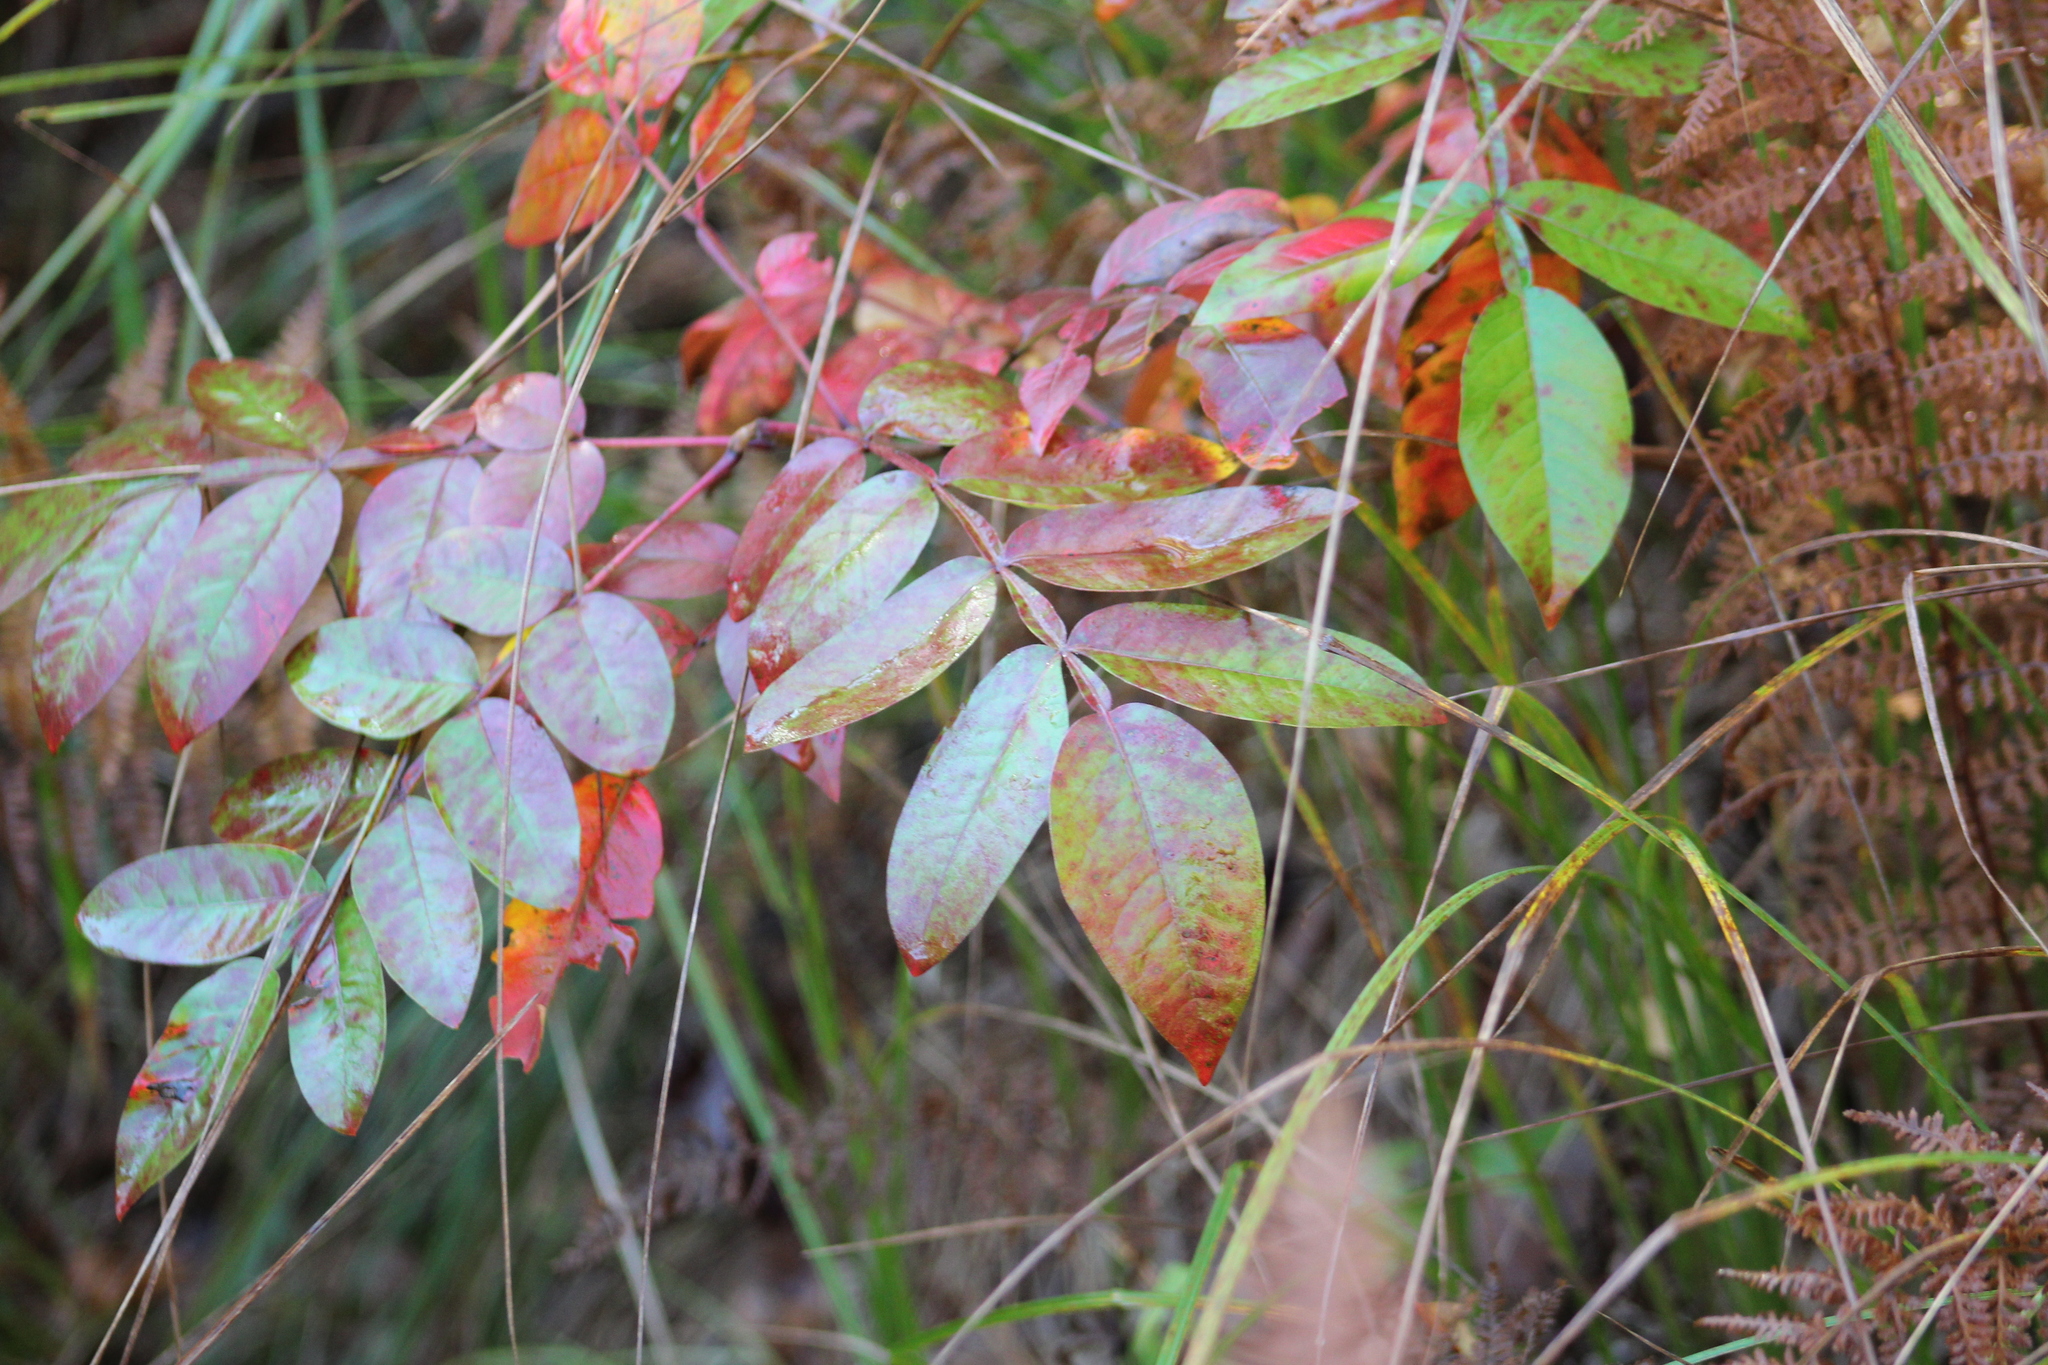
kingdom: Plantae
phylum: Tracheophyta
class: Magnoliopsida
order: Sapindales
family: Anacardiaceae
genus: Rhus
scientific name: Rhus copallina
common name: Shining sumac
